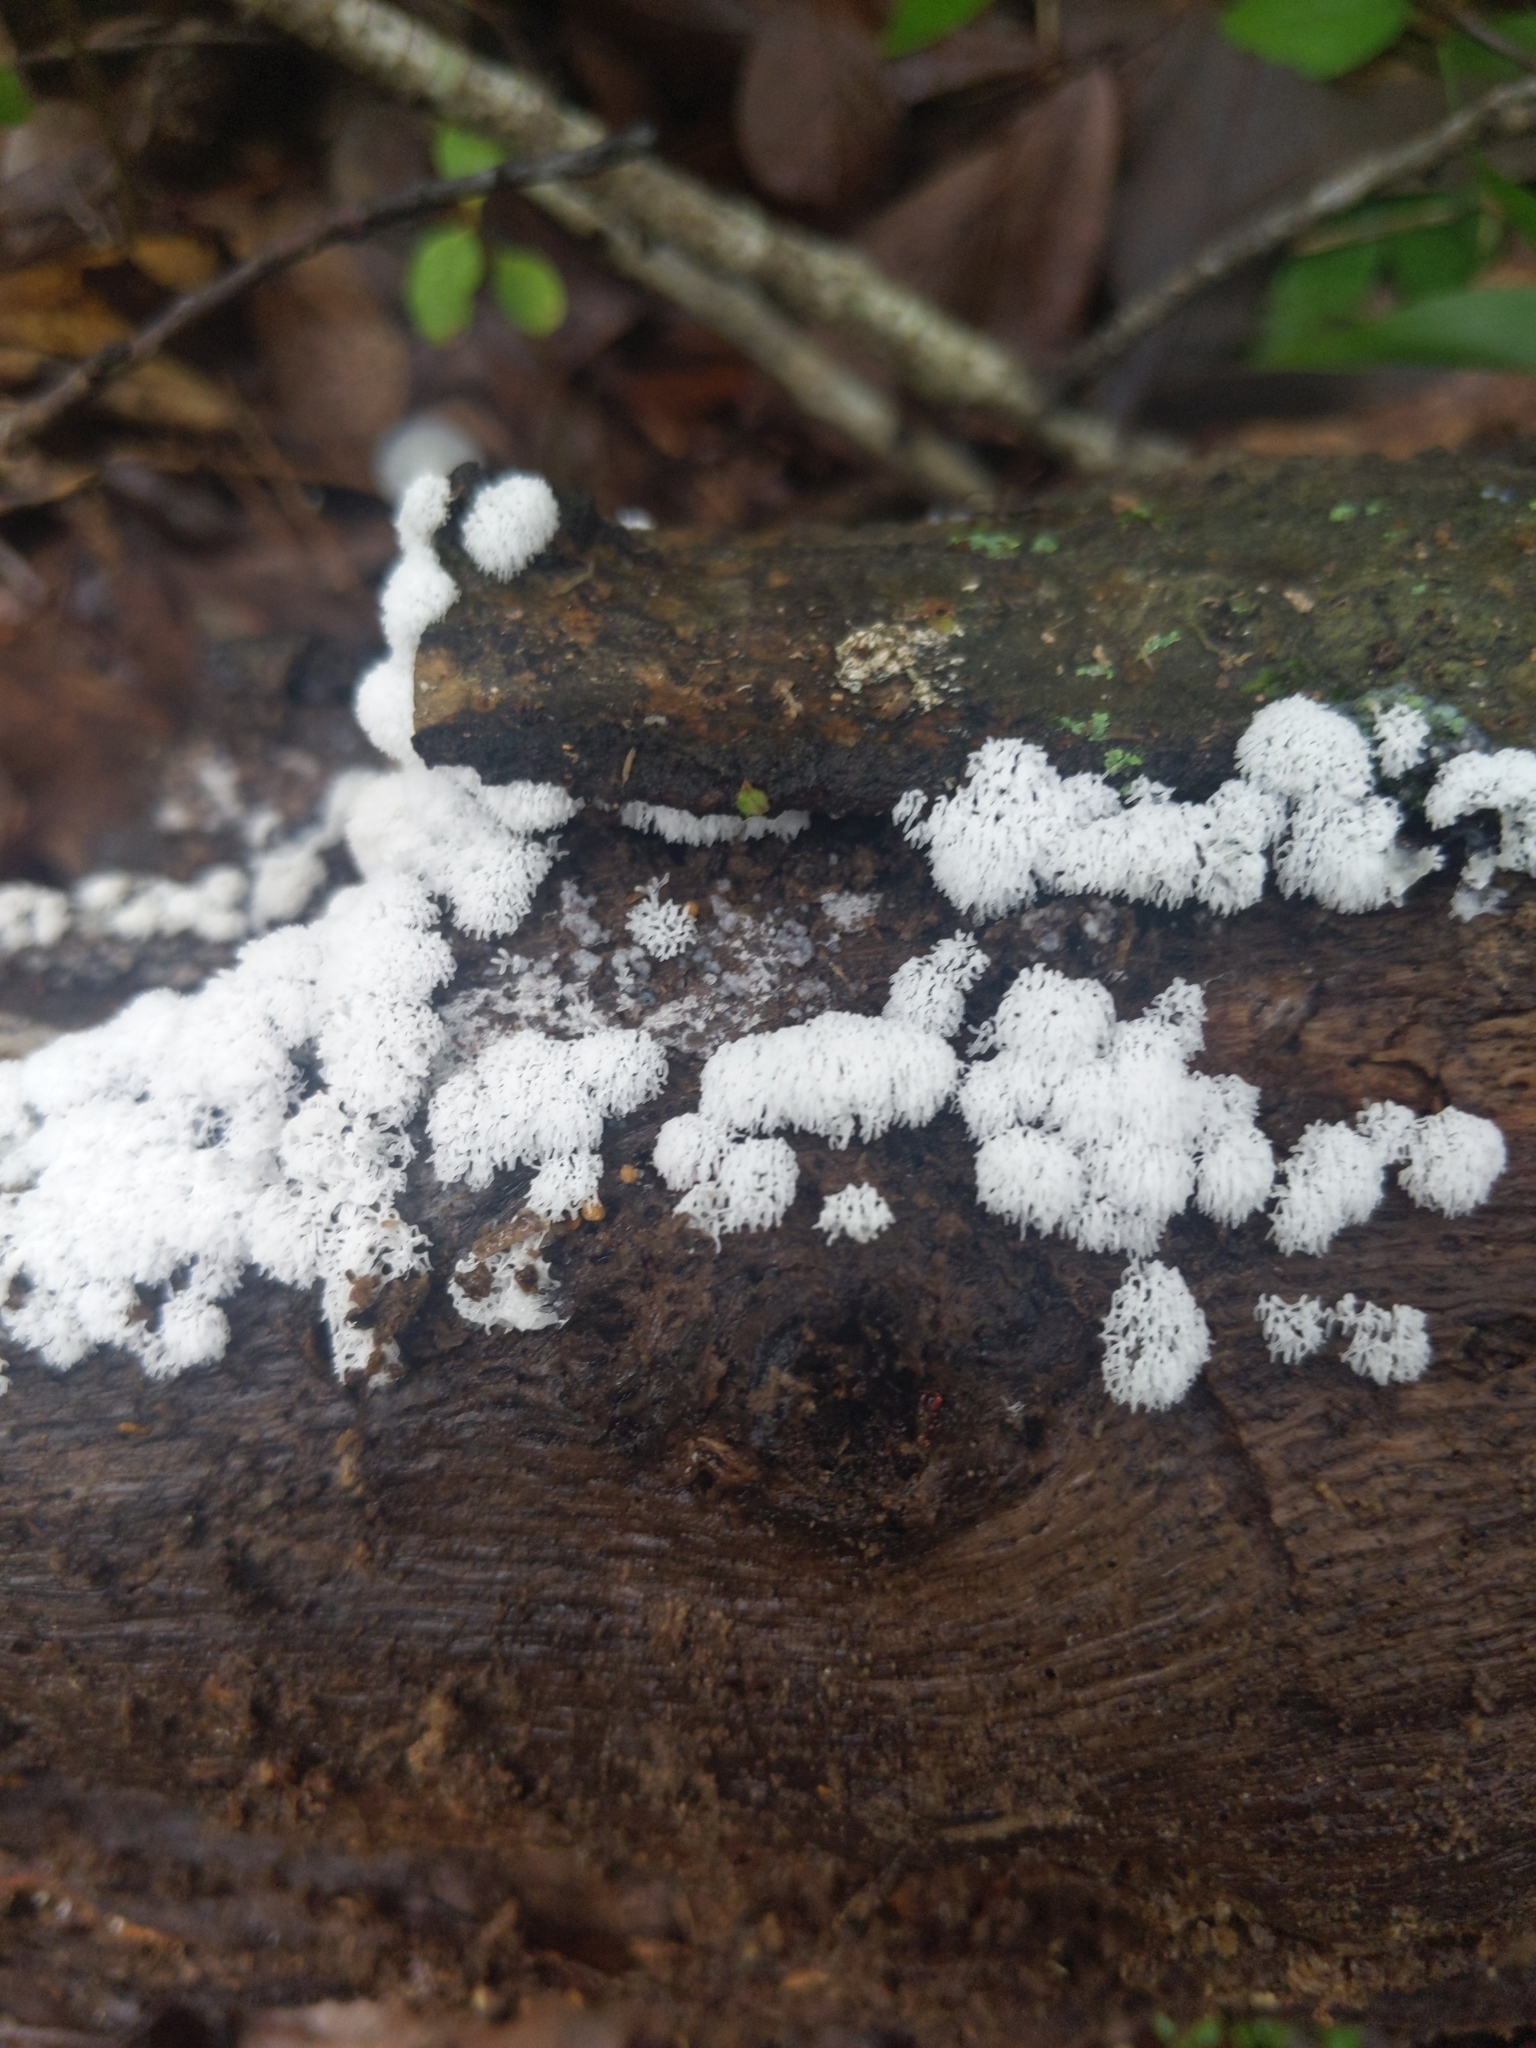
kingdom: Protozoa
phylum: Mycetozoa
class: Protosteliomycetes
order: Ceratiomyxales
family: Ceratiomyxaceae
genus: Ceratiomyxa
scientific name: Ceratiomyxa fruticulosa
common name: Honeycomb coral slime mold
